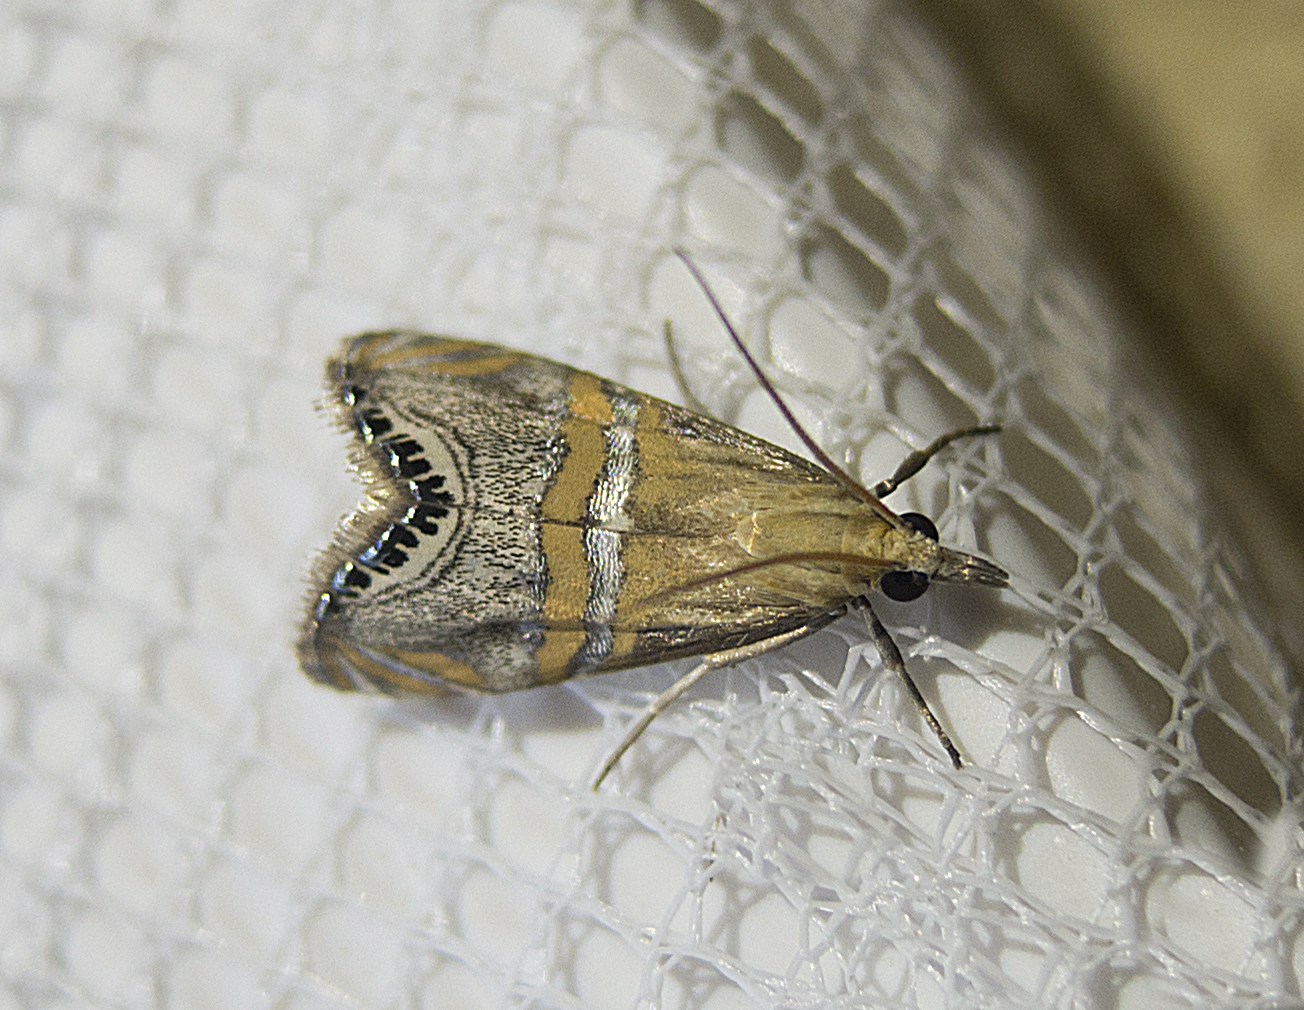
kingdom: Animalia
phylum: Arthropoda
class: Insecta
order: Lepidoptera
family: Crambidae
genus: Euchromius
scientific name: Euchromius bella
